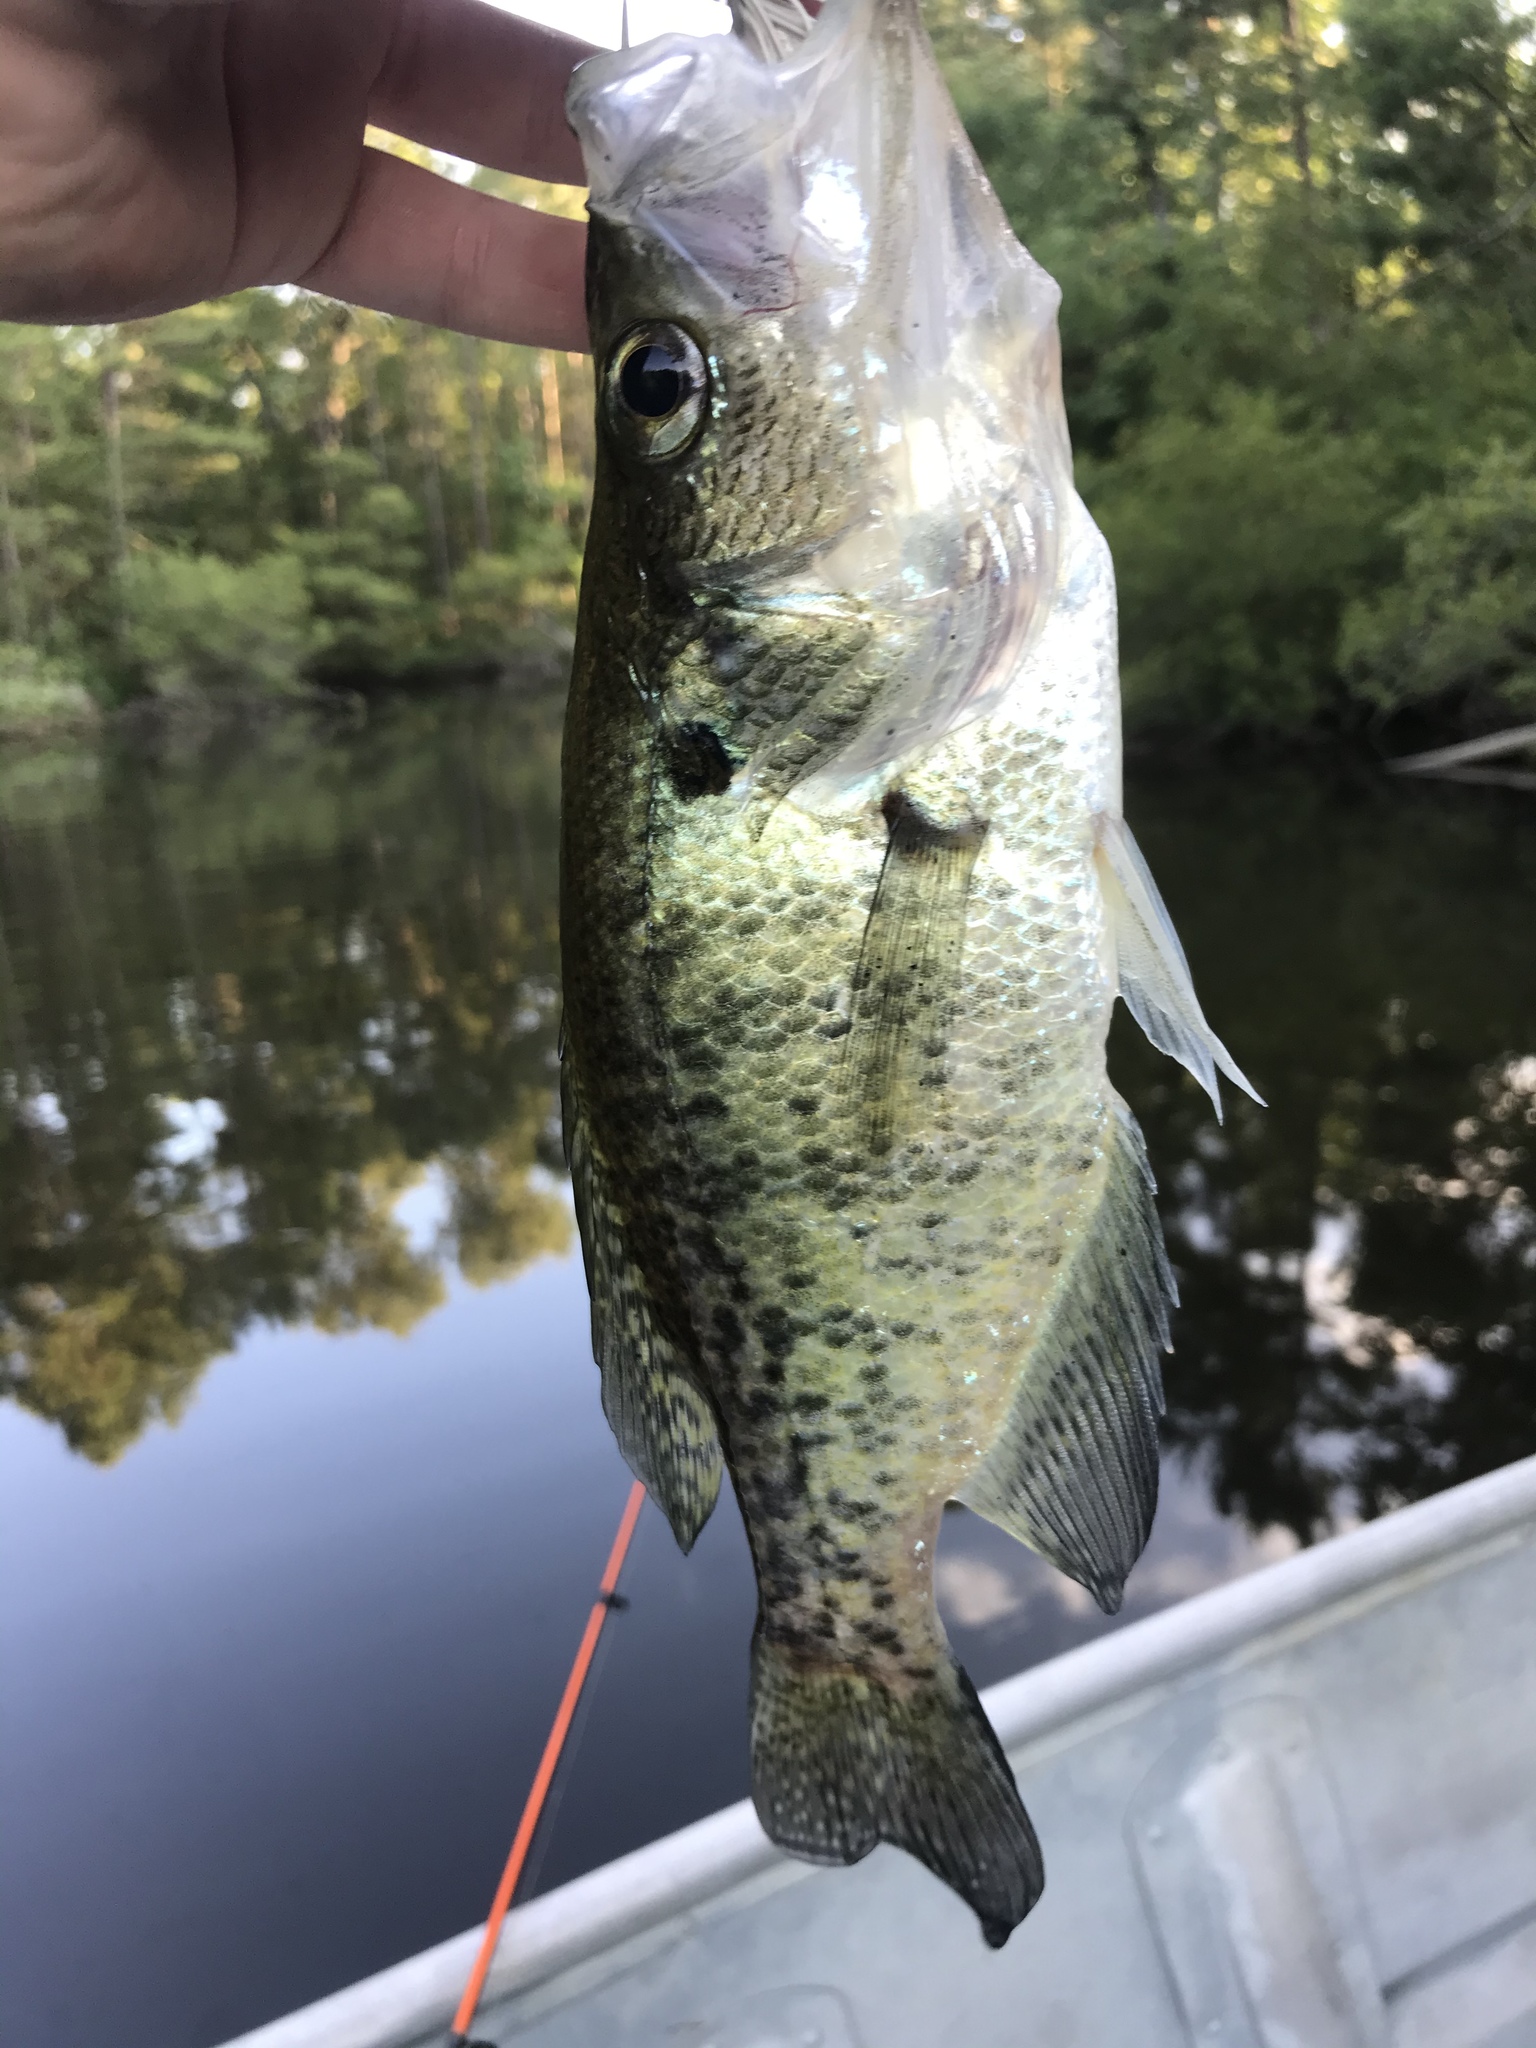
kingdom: Animalia
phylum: Chordata
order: Perciformes
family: Centrarchidae
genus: Pomoxis
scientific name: Pomoxis annularis
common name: White crappie
